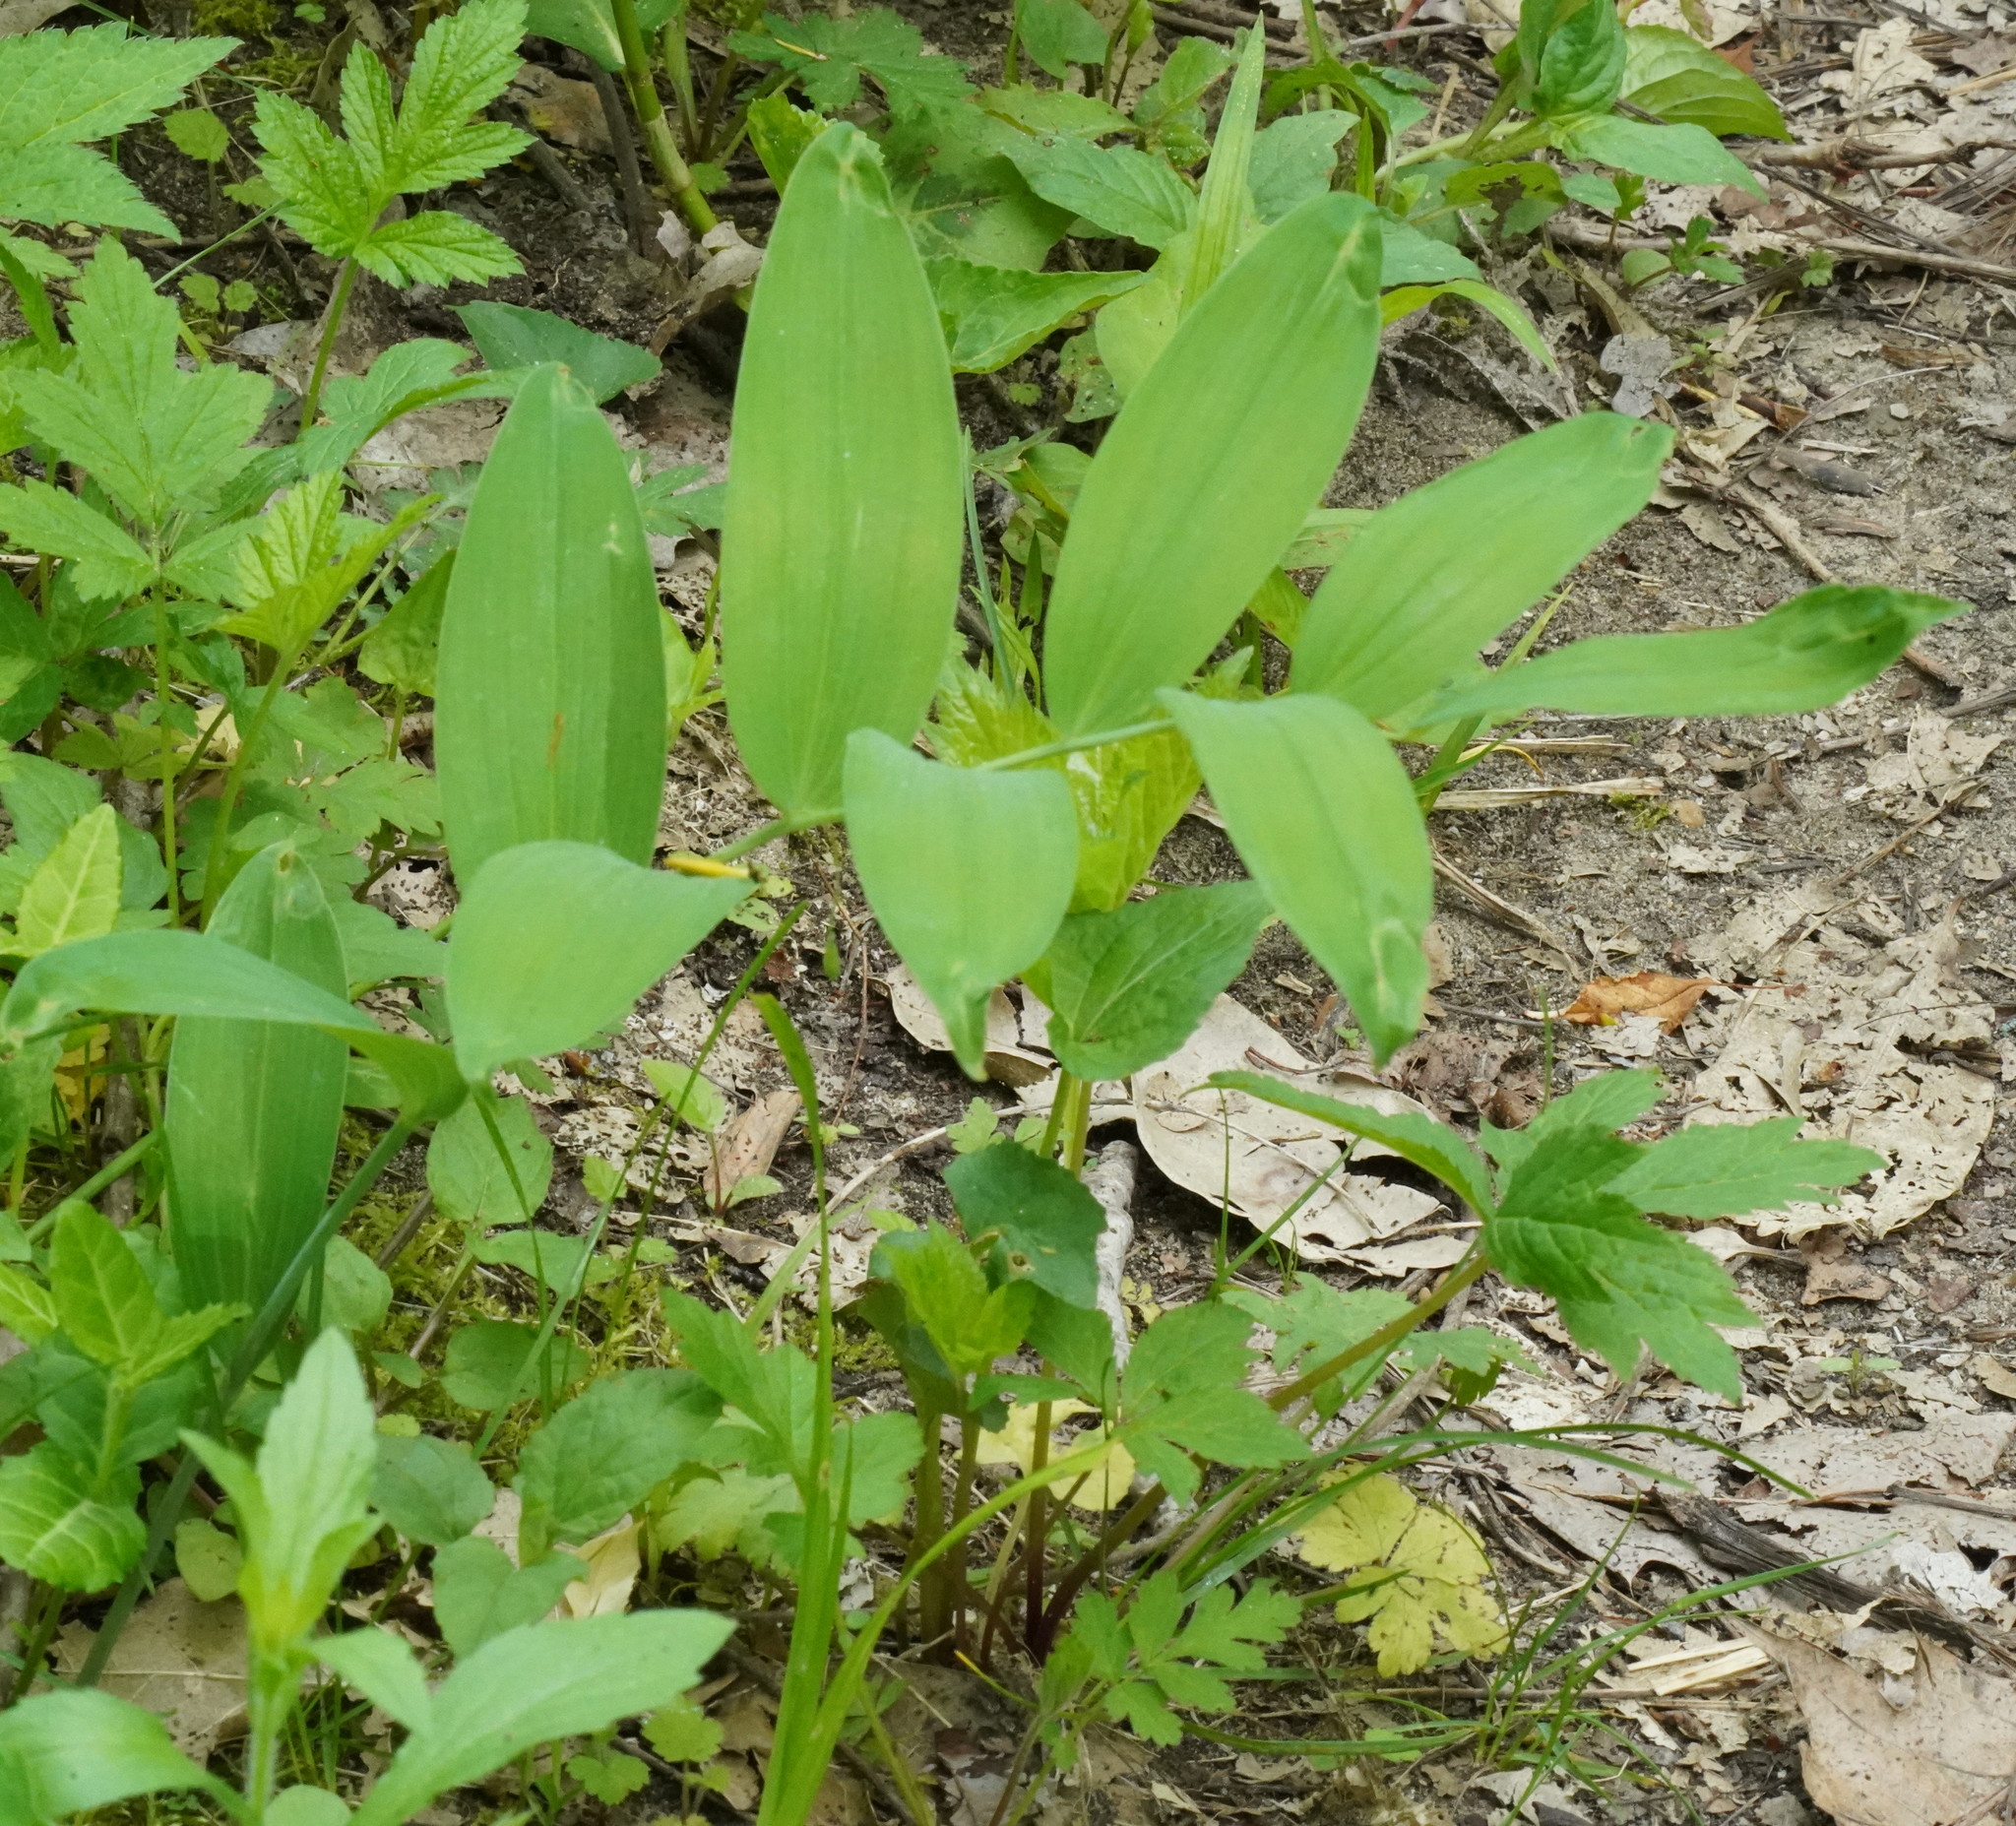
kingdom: Plantae
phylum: Tracheophyta
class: Liliopsida
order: Asparagales
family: Asparagaceae
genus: Polygonatum
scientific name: Polygonatum biflorum
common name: American solomon's-seal
